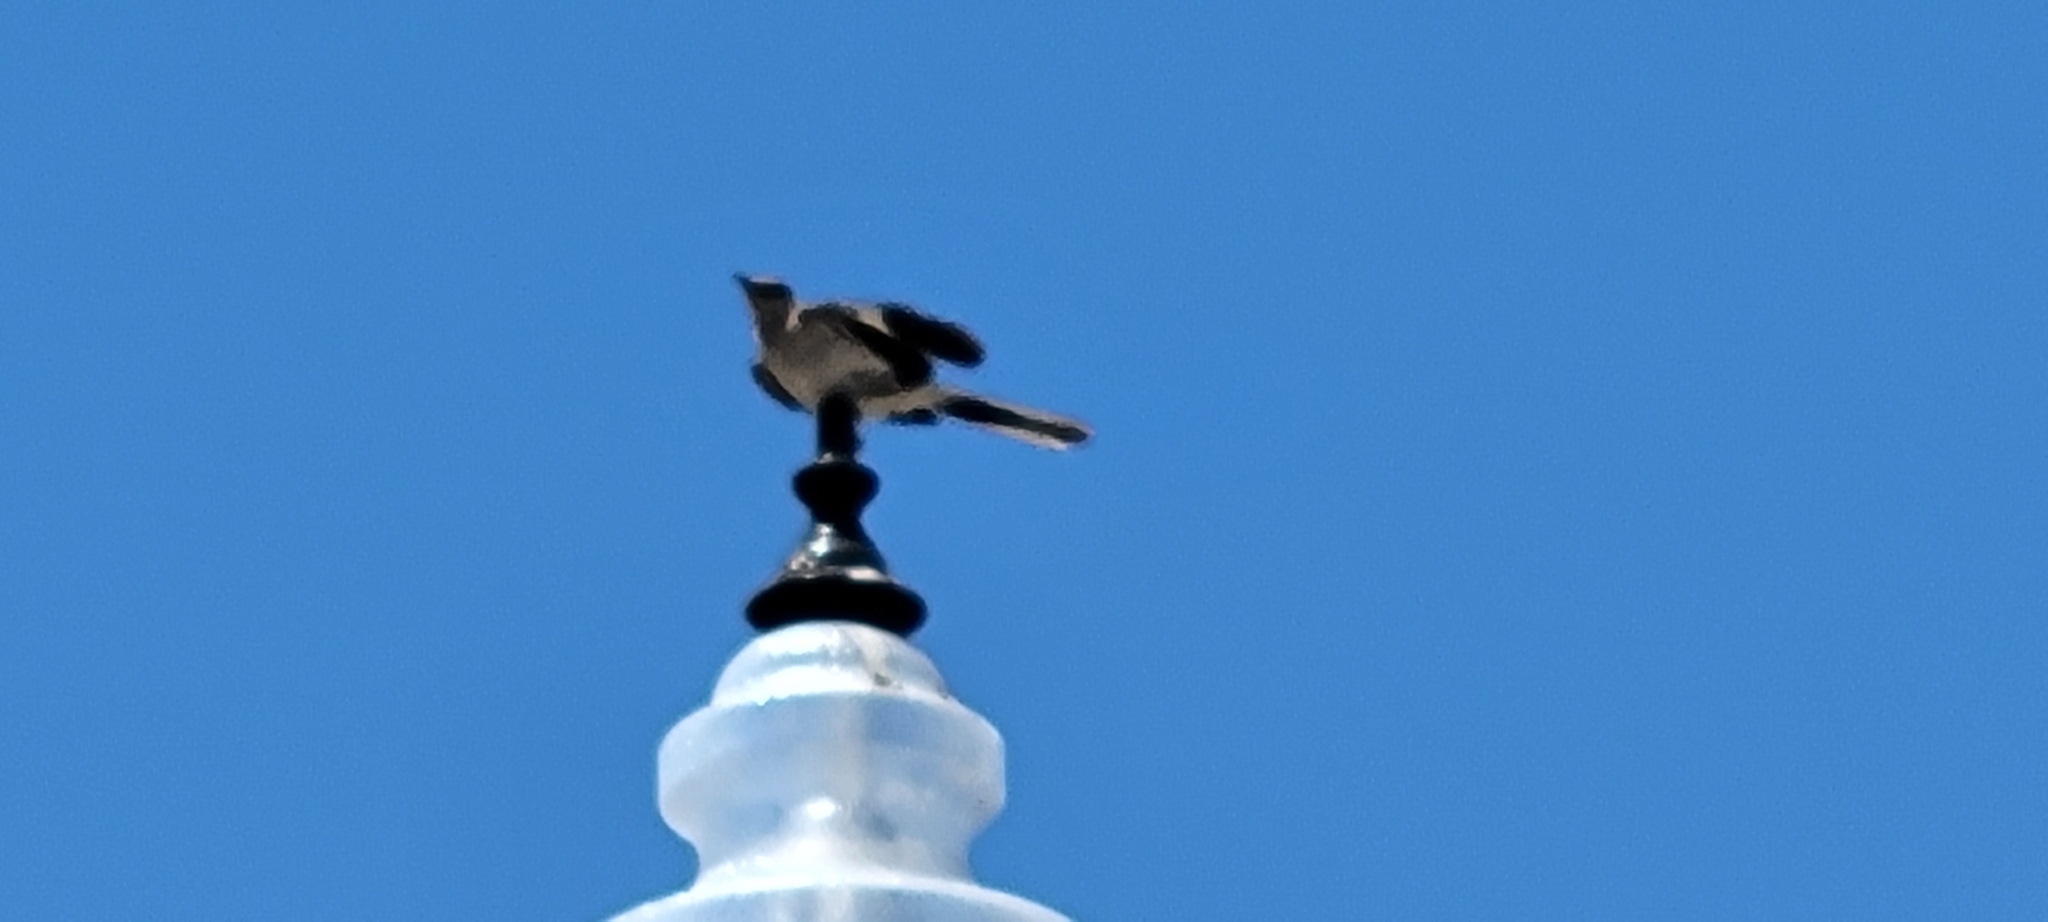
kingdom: Animalia
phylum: Chordata
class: Aves
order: Passeriformes
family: Mimidae
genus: Mimus
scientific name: Mimus polyglottos
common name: Northern mockingbird
